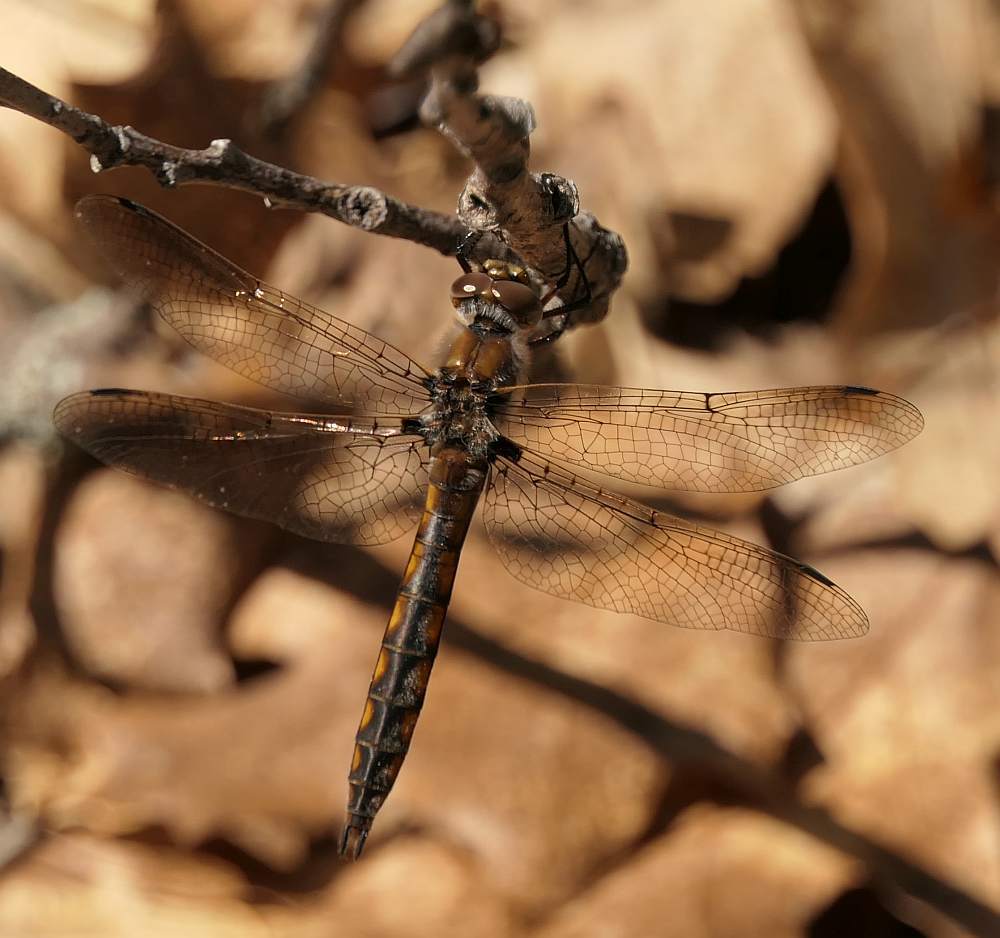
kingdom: Animalia
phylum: Arthropoda
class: Insecta
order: Odonata
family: Corduliidae
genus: Epitheca
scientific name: Epitheca canis
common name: Beaverpond baskettail
